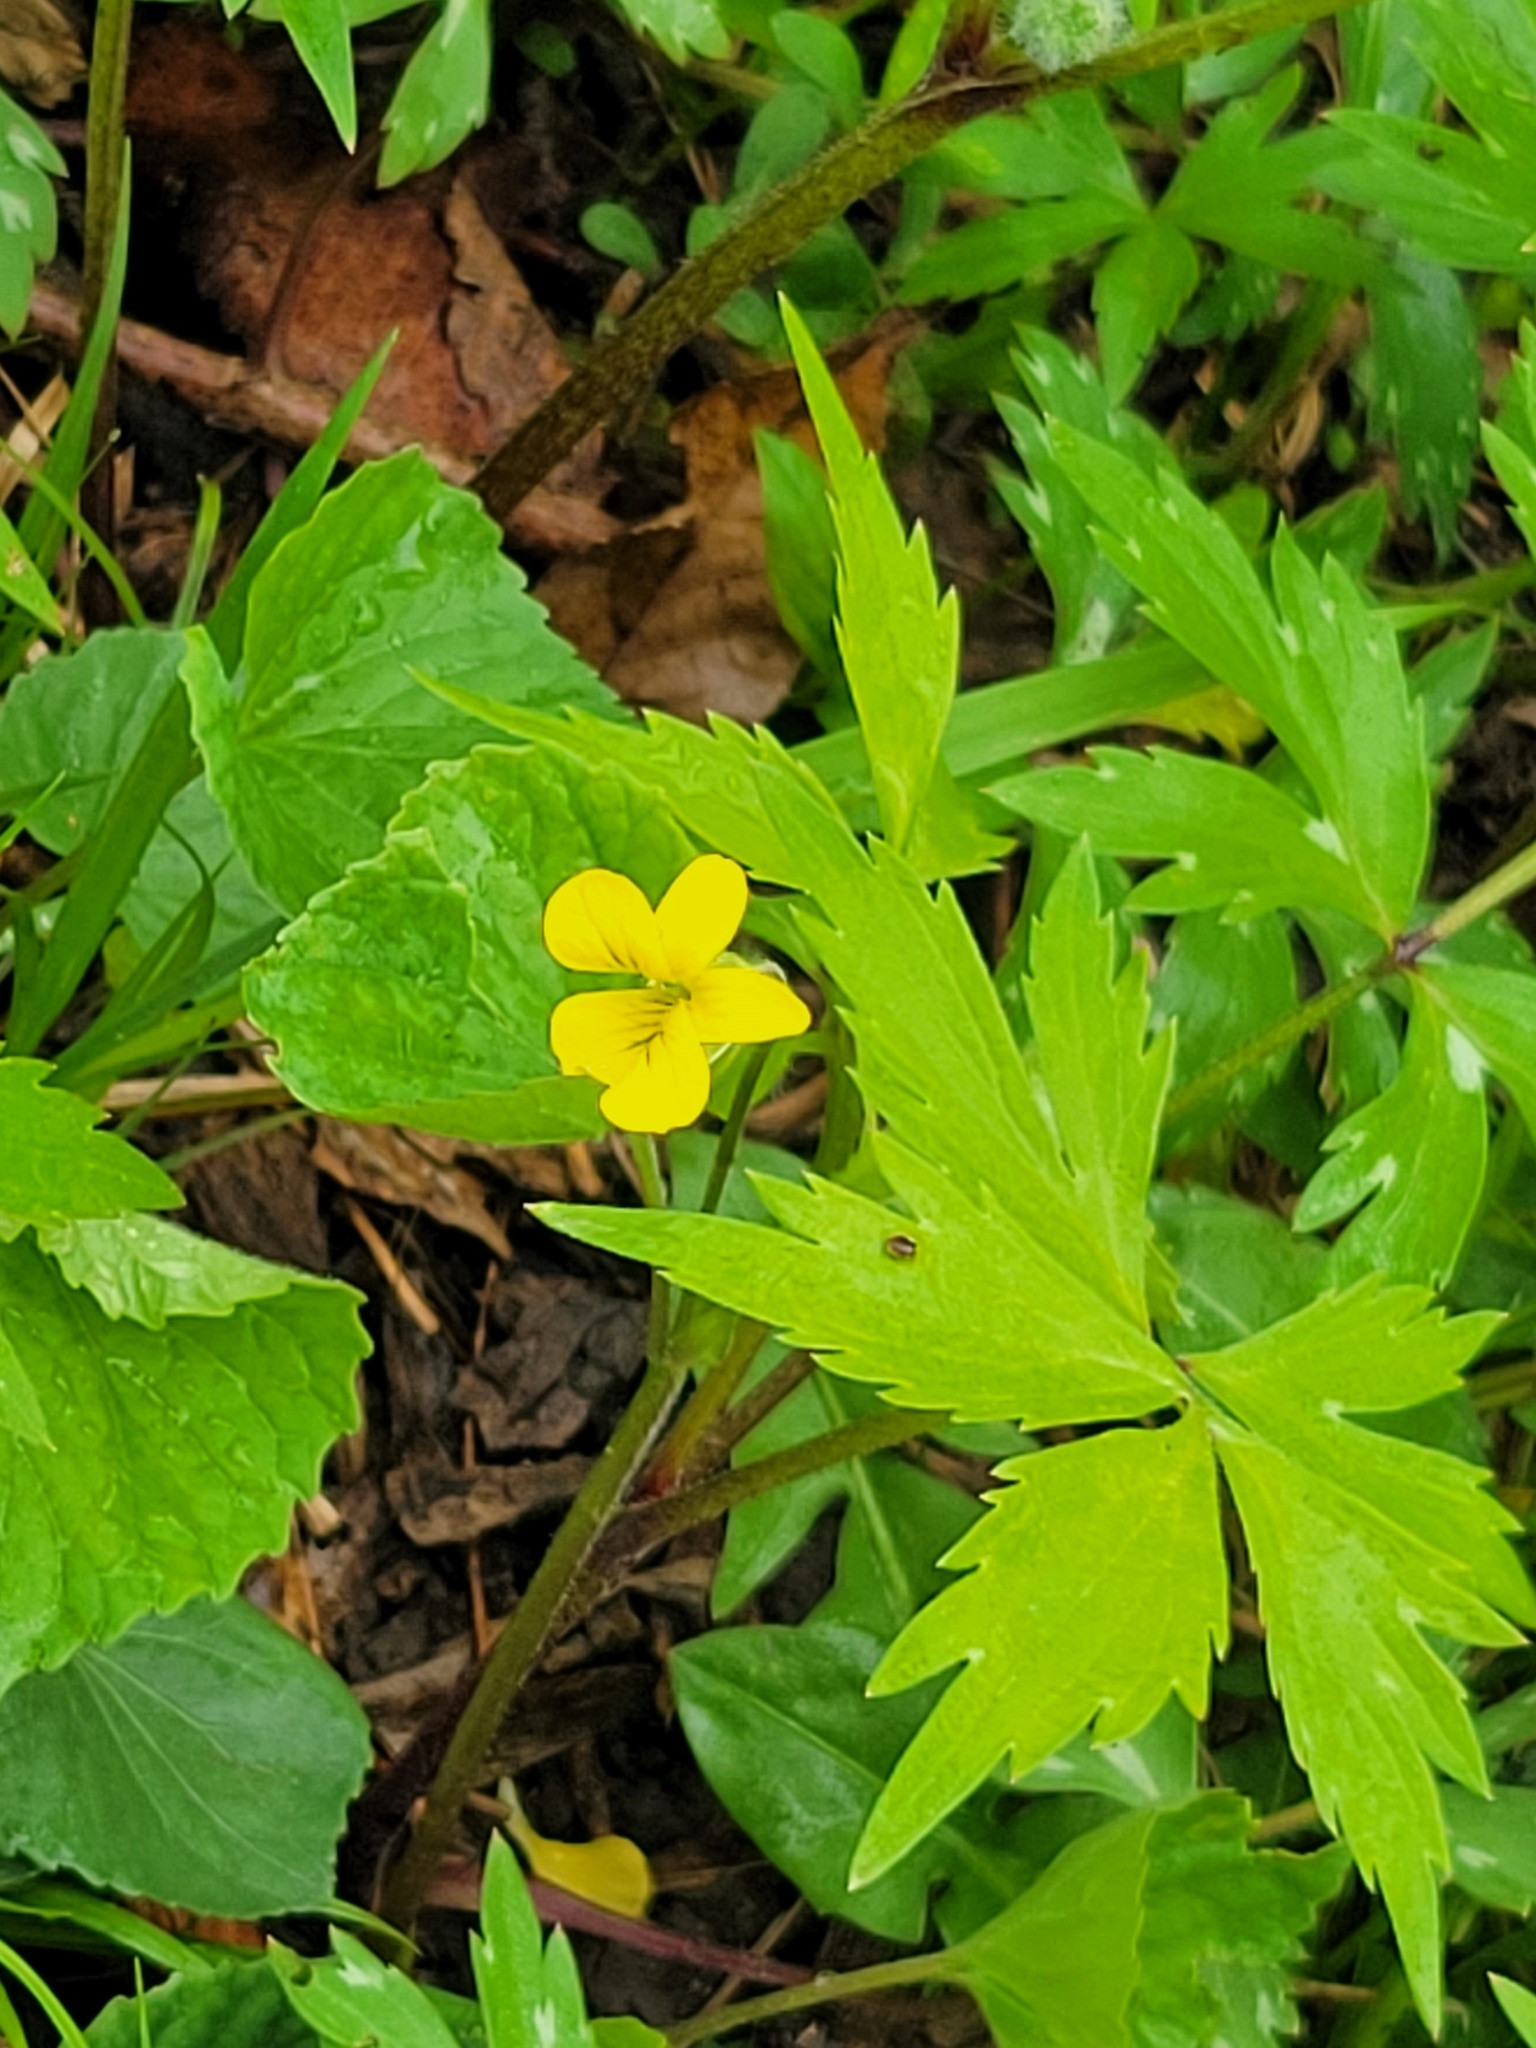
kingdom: Plantae
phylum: Tracheophyta
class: Magnoliopsida
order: Malpighiales
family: Violaceae
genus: Viola
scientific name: Viola eriocarpa
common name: Smooth yellow violet
